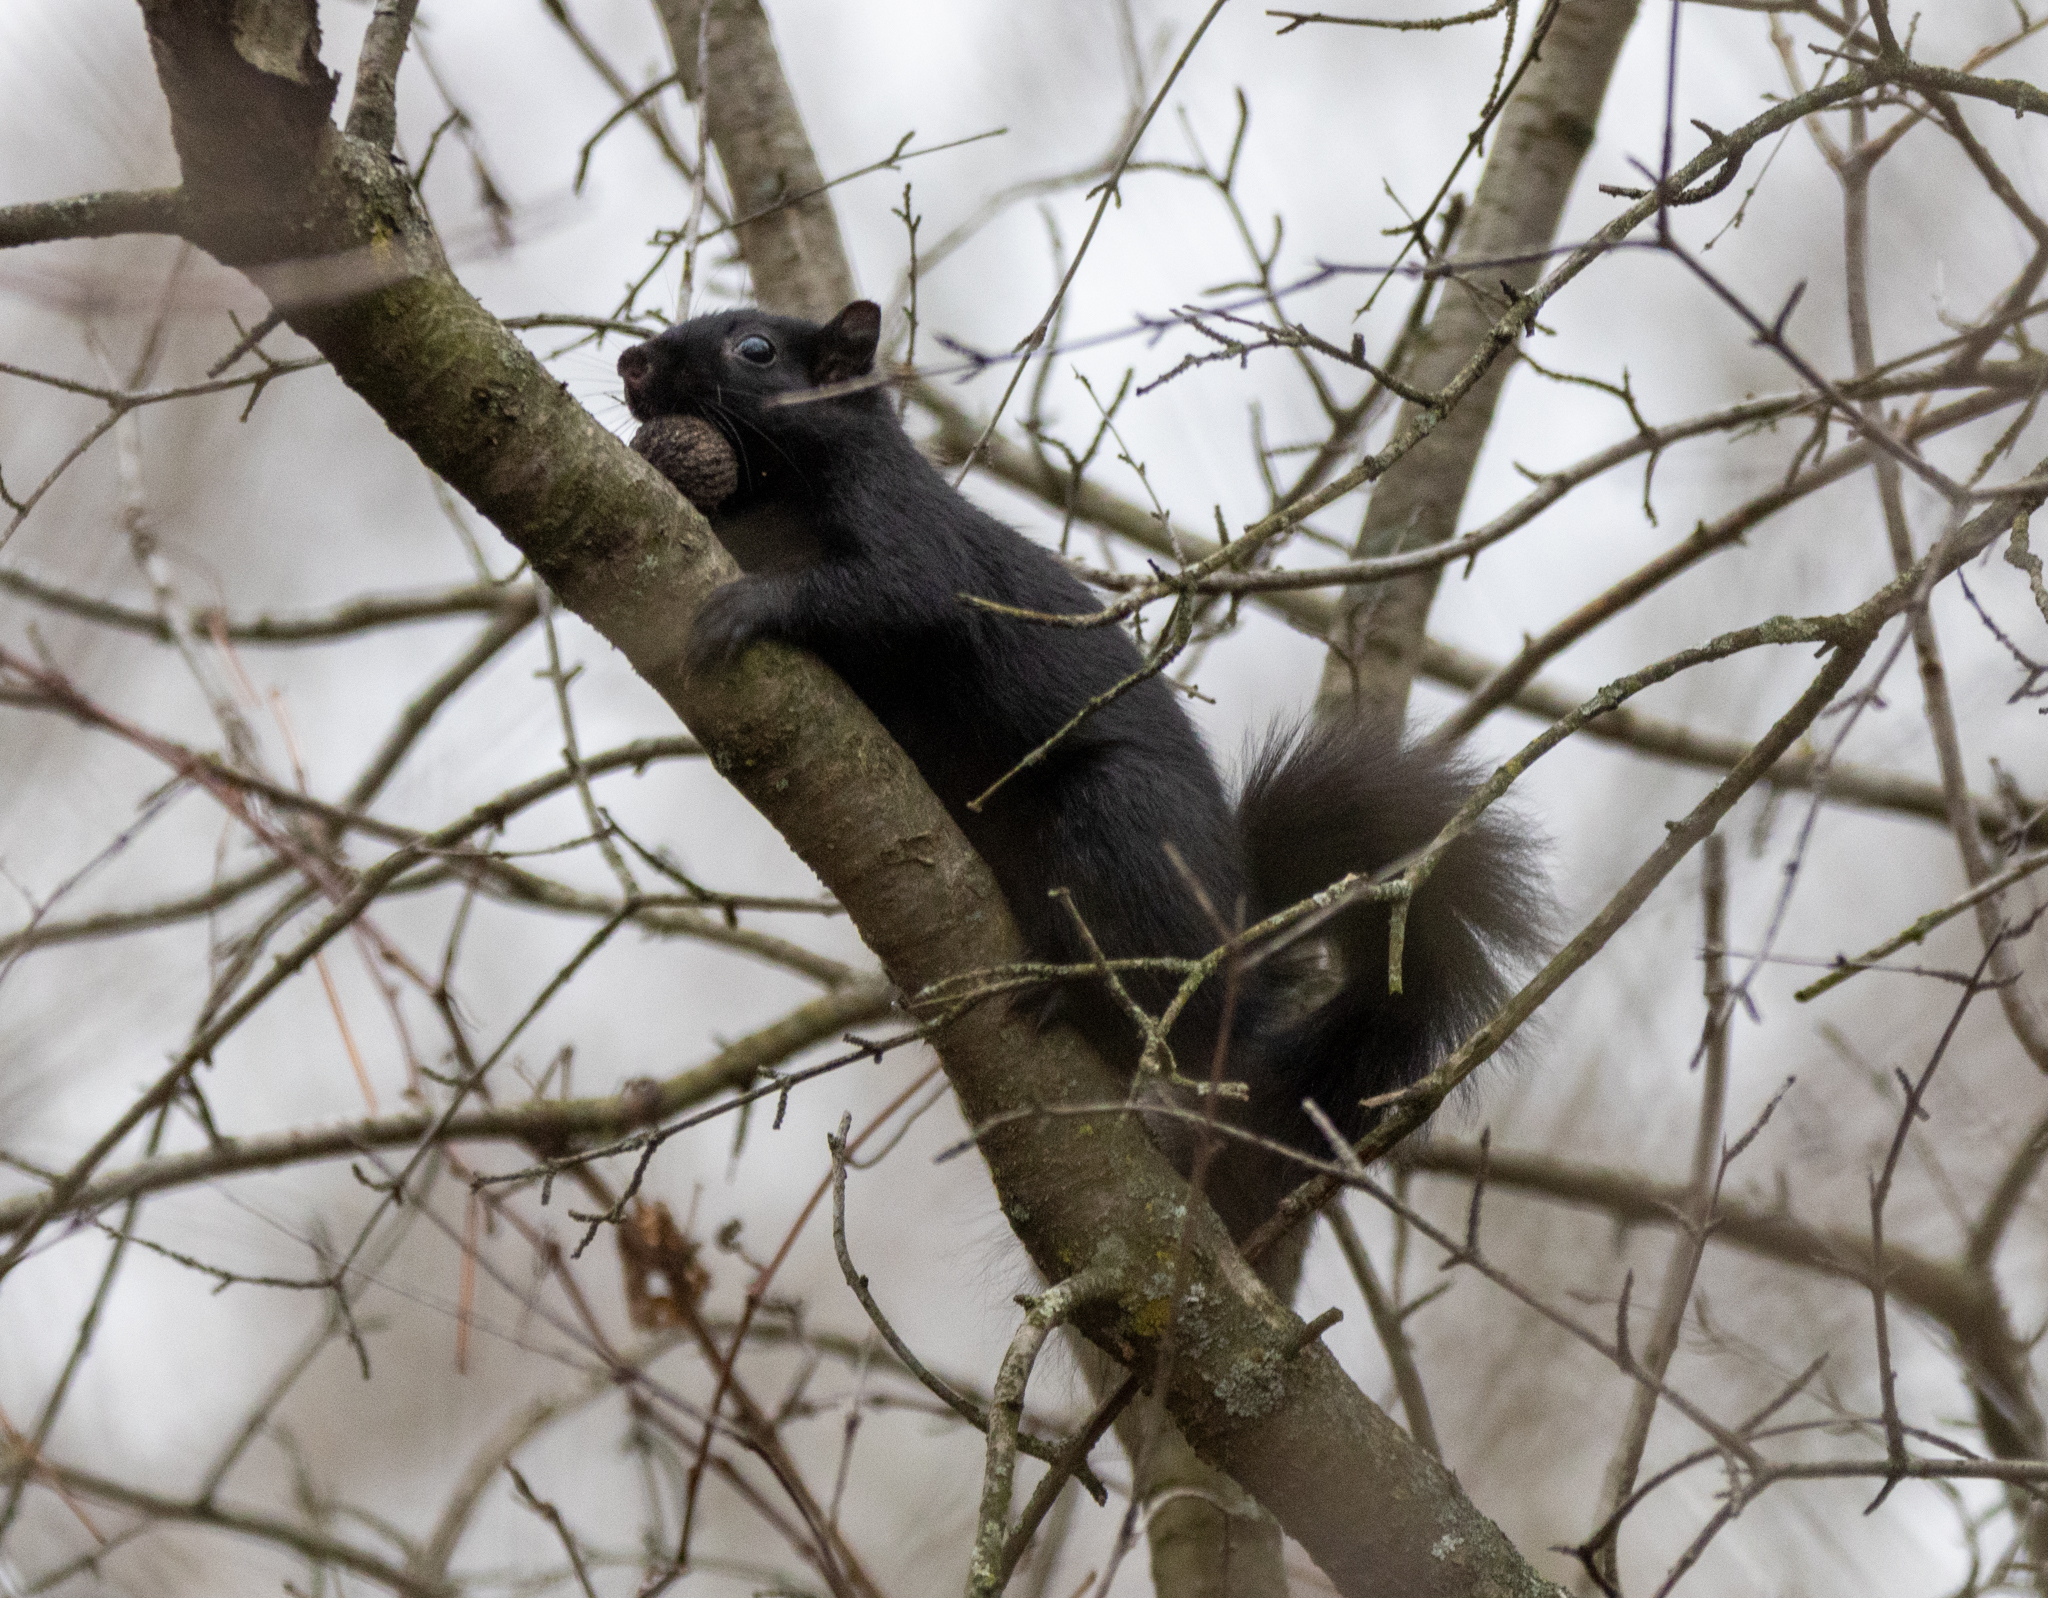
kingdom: Animalia
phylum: Chordata
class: Mammalia
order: Rodentia
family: Sciuridae
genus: Sciurus
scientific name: Sciurus carolinensis
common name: Eastern gray squirrel
